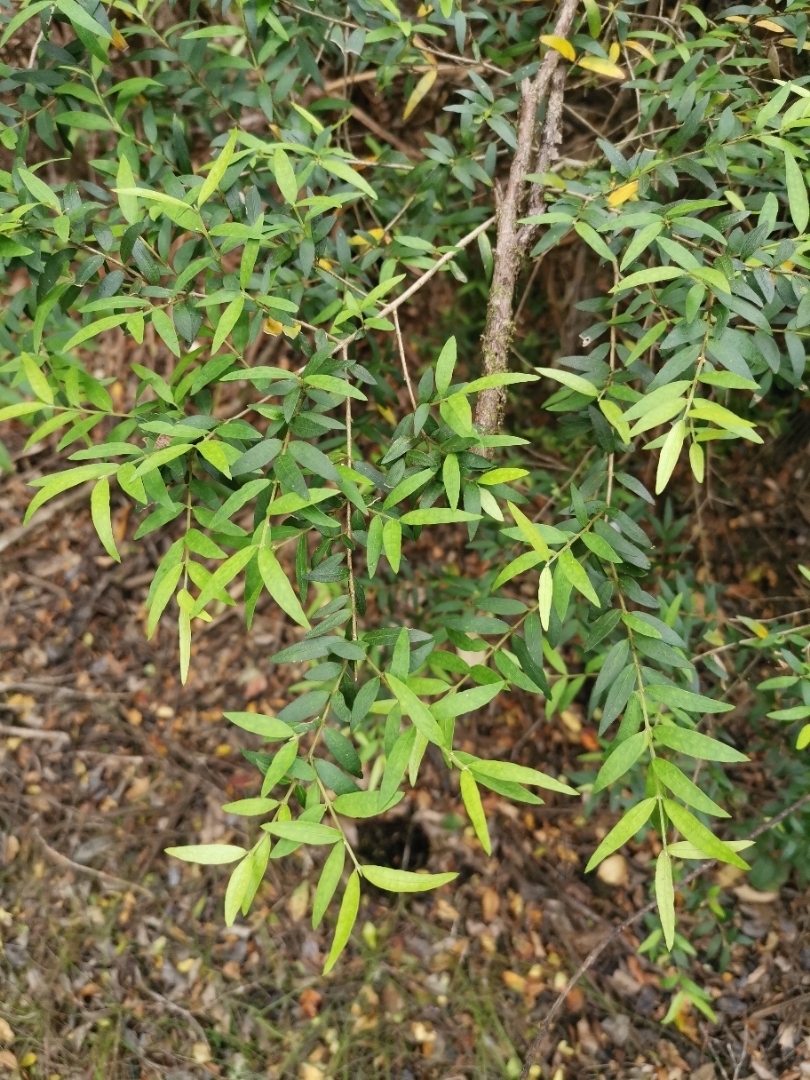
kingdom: Plantae
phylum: Tracheophyta
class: Magnoliopsida
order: Myrtales
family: Myrtaceae
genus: Myrceugenia
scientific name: Myrceugenia parvifolia
